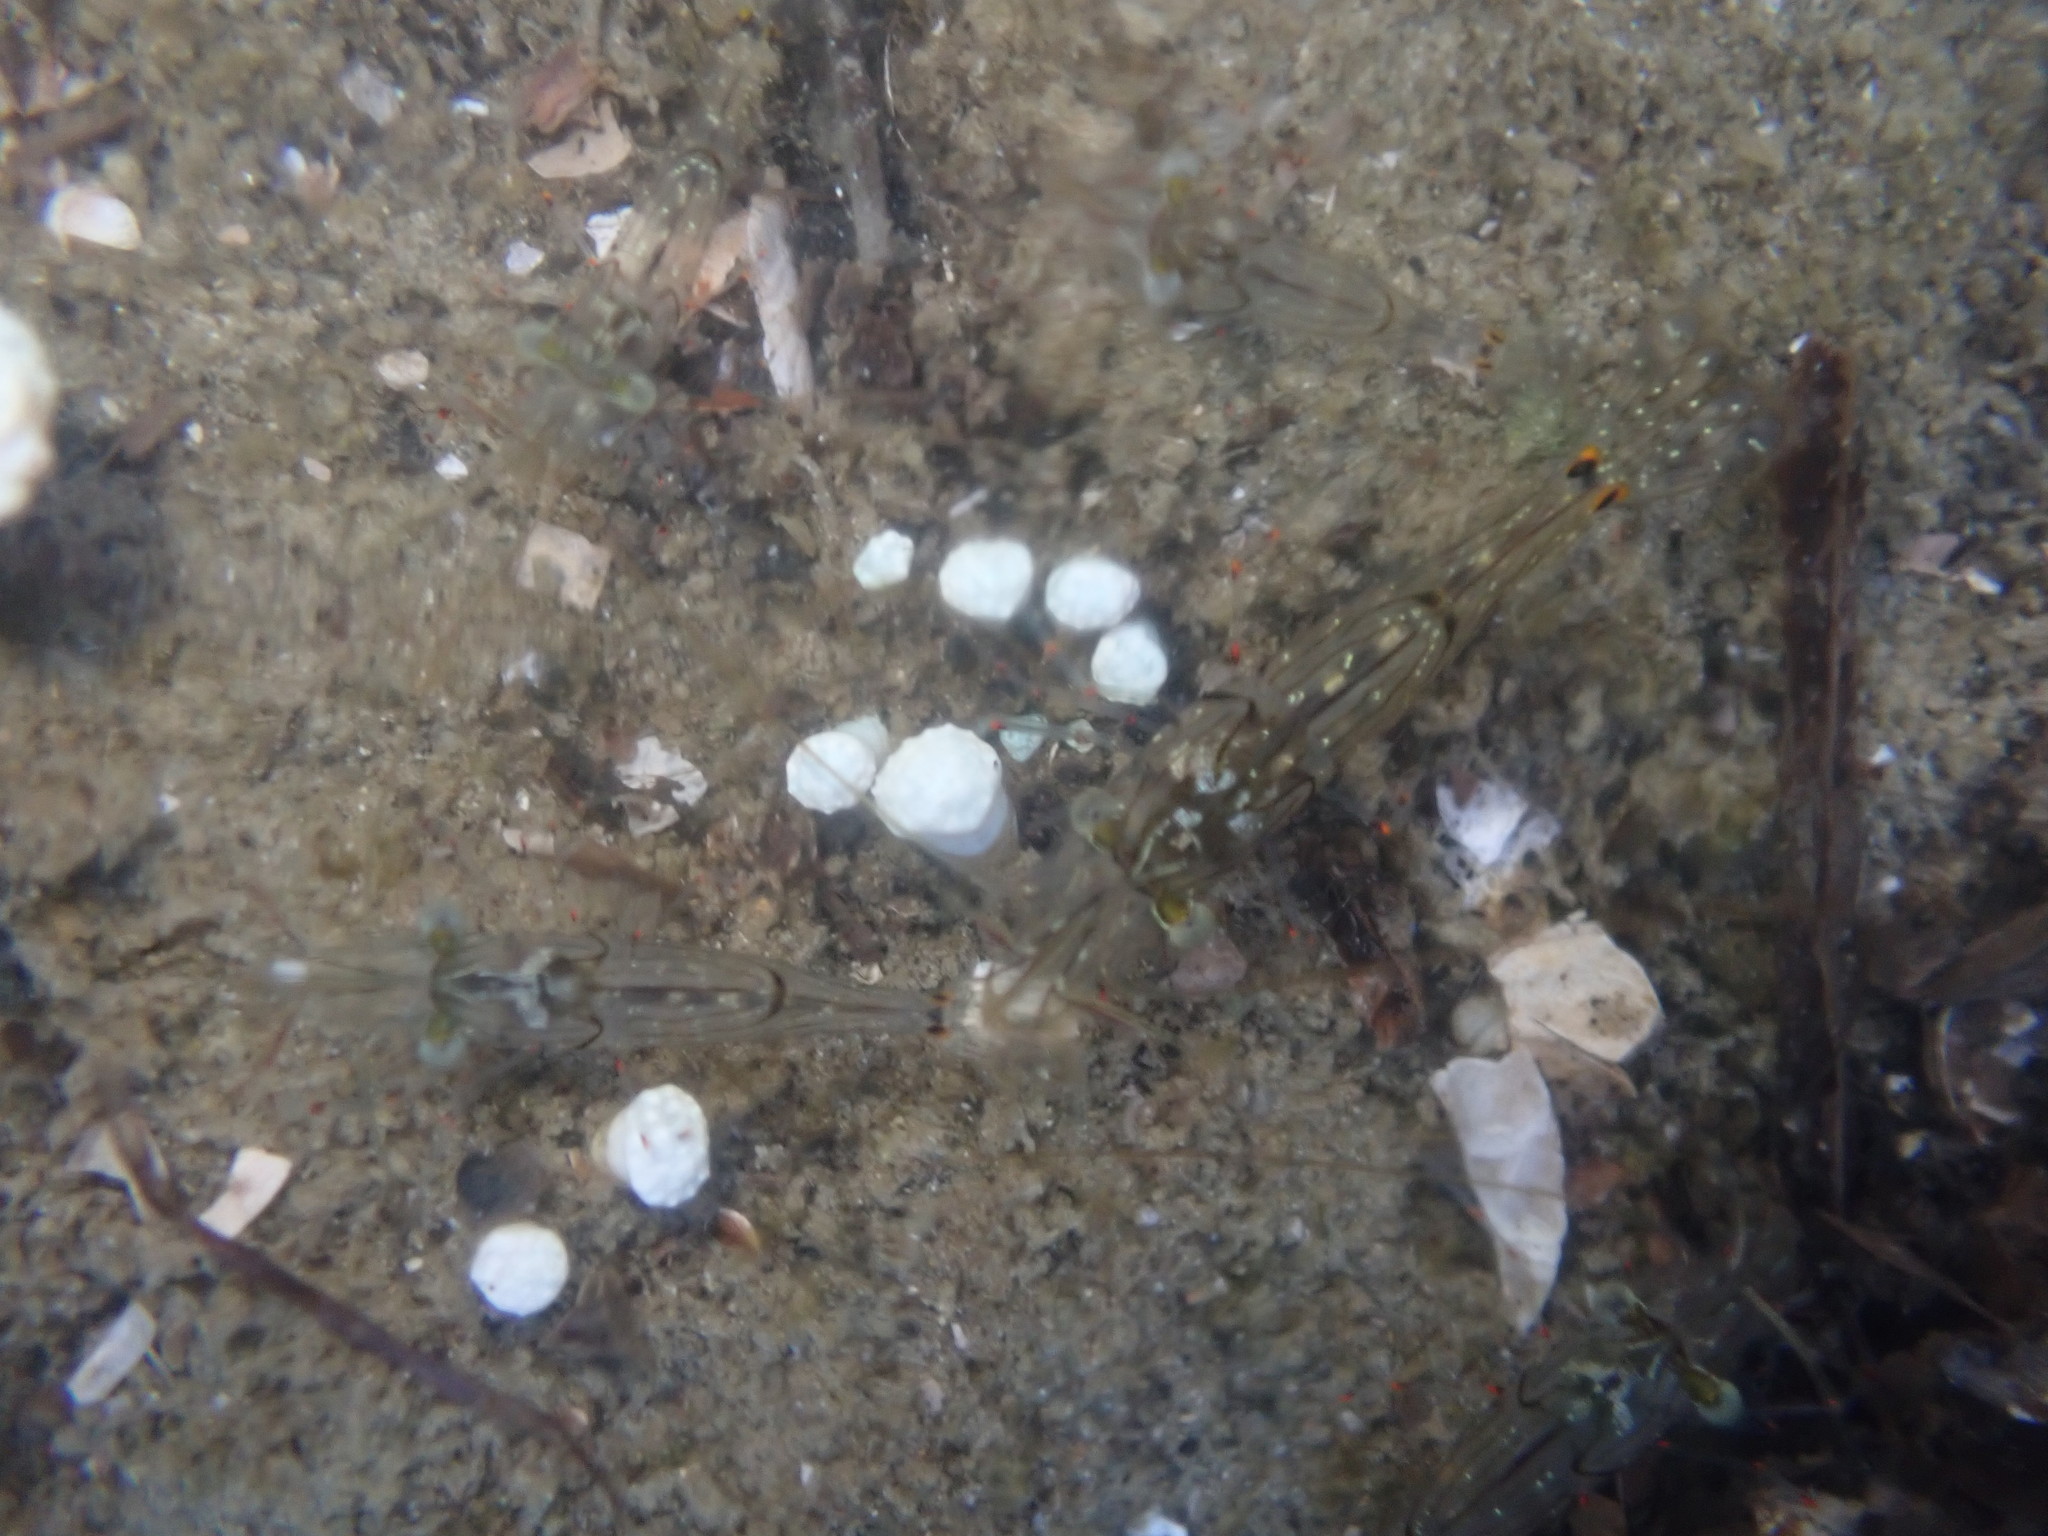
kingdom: Animalia
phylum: Arthropoda
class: Malacostraca
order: Decapoda
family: Palaemonidae
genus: Palaemon
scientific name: Palaemon affinis
